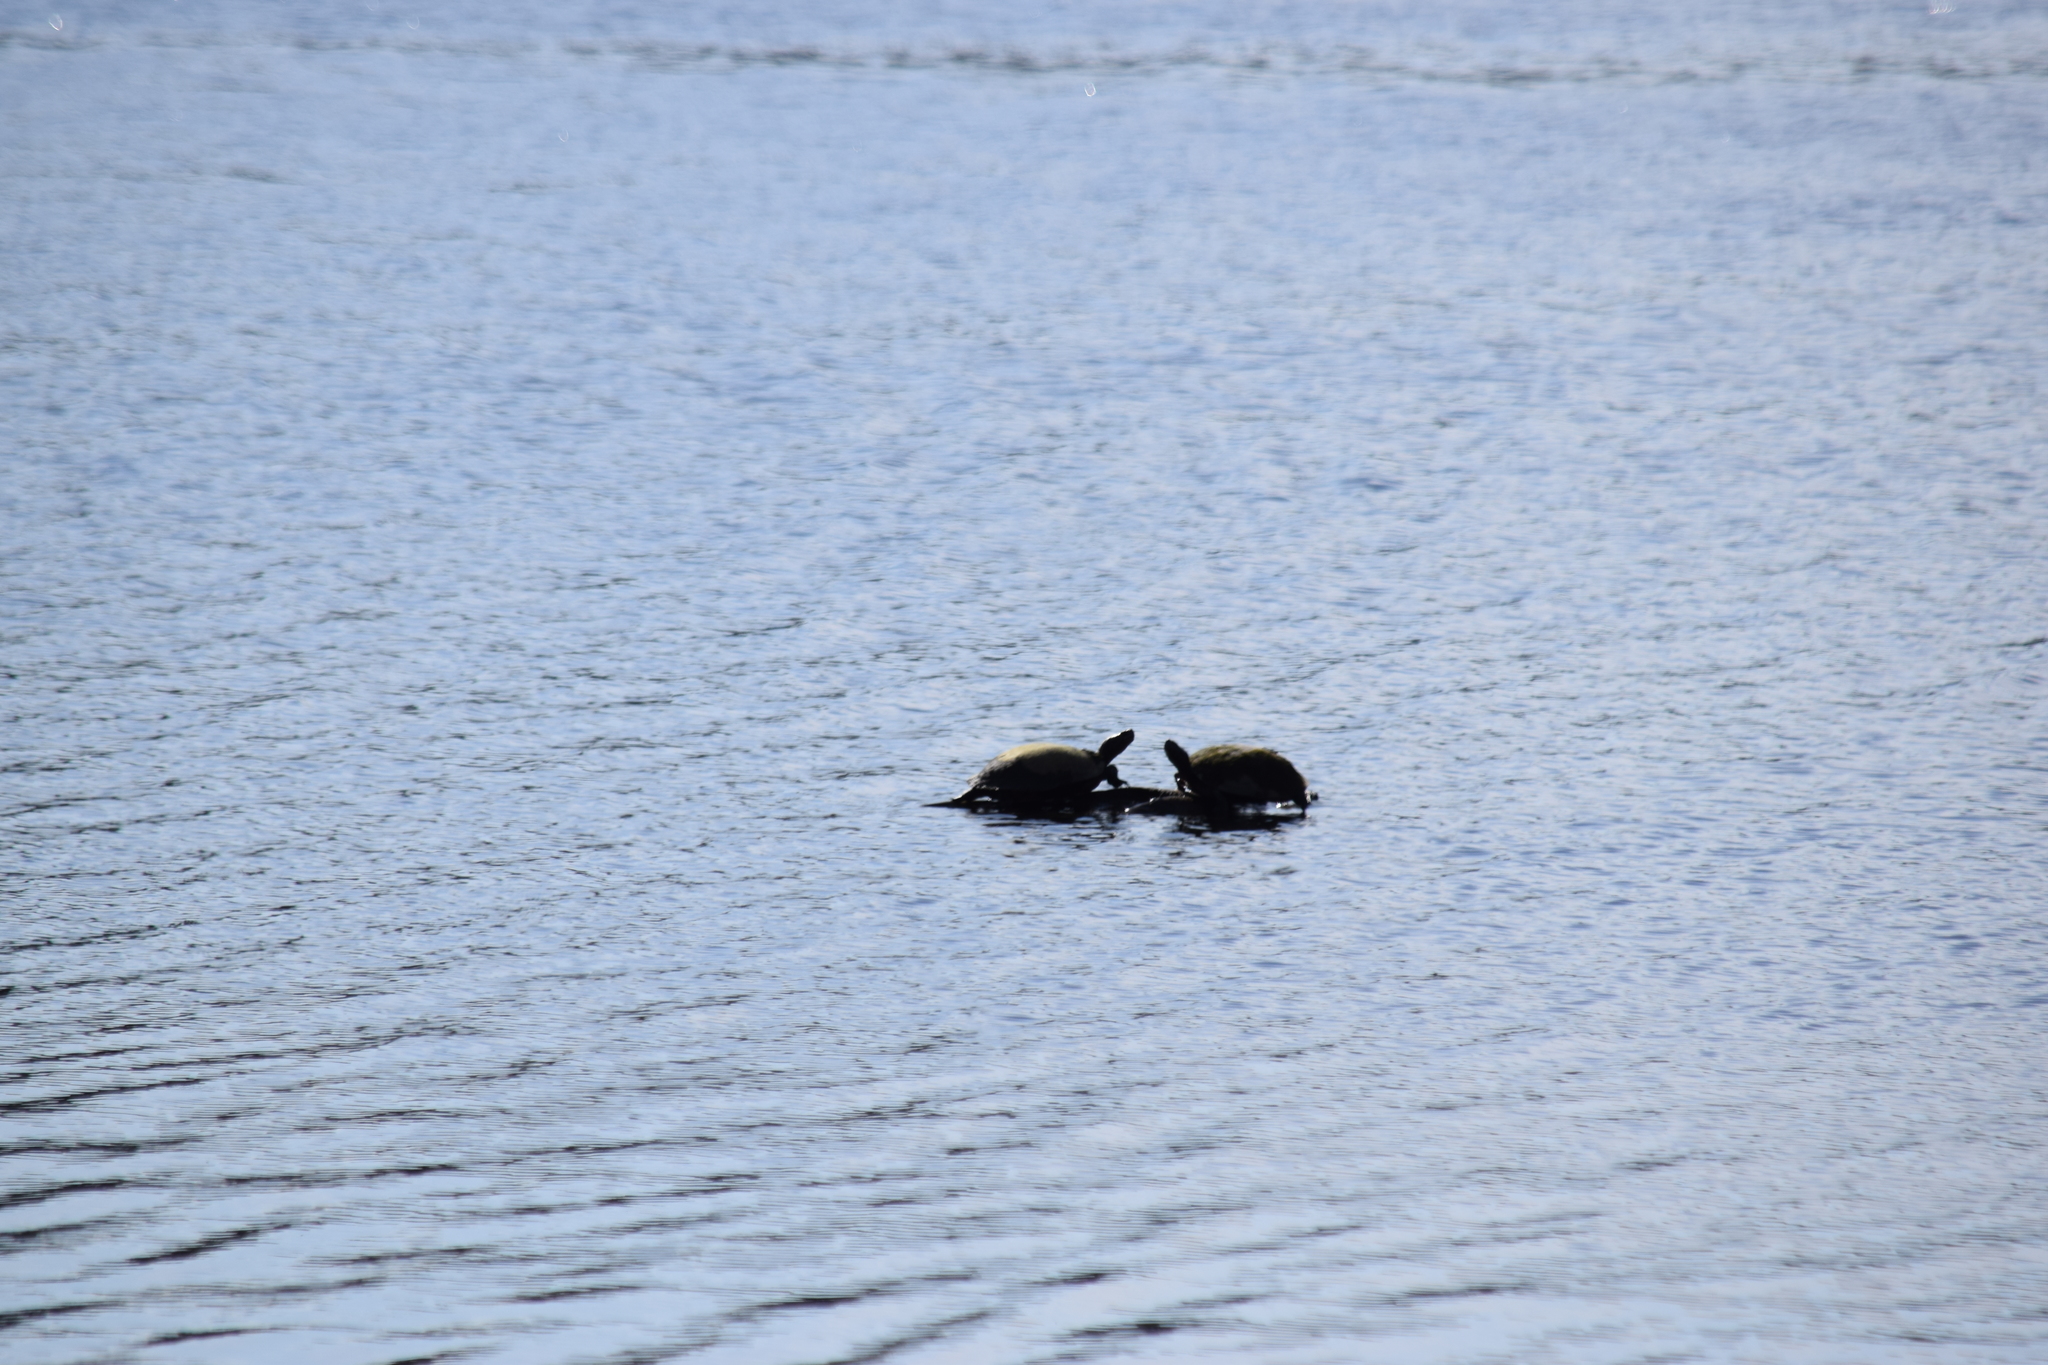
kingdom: Animalia
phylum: Chordata
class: Testudines
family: Emydidae
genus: Pseudemys
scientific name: Pseudemys rubriventris
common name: American red-bellied turtle
